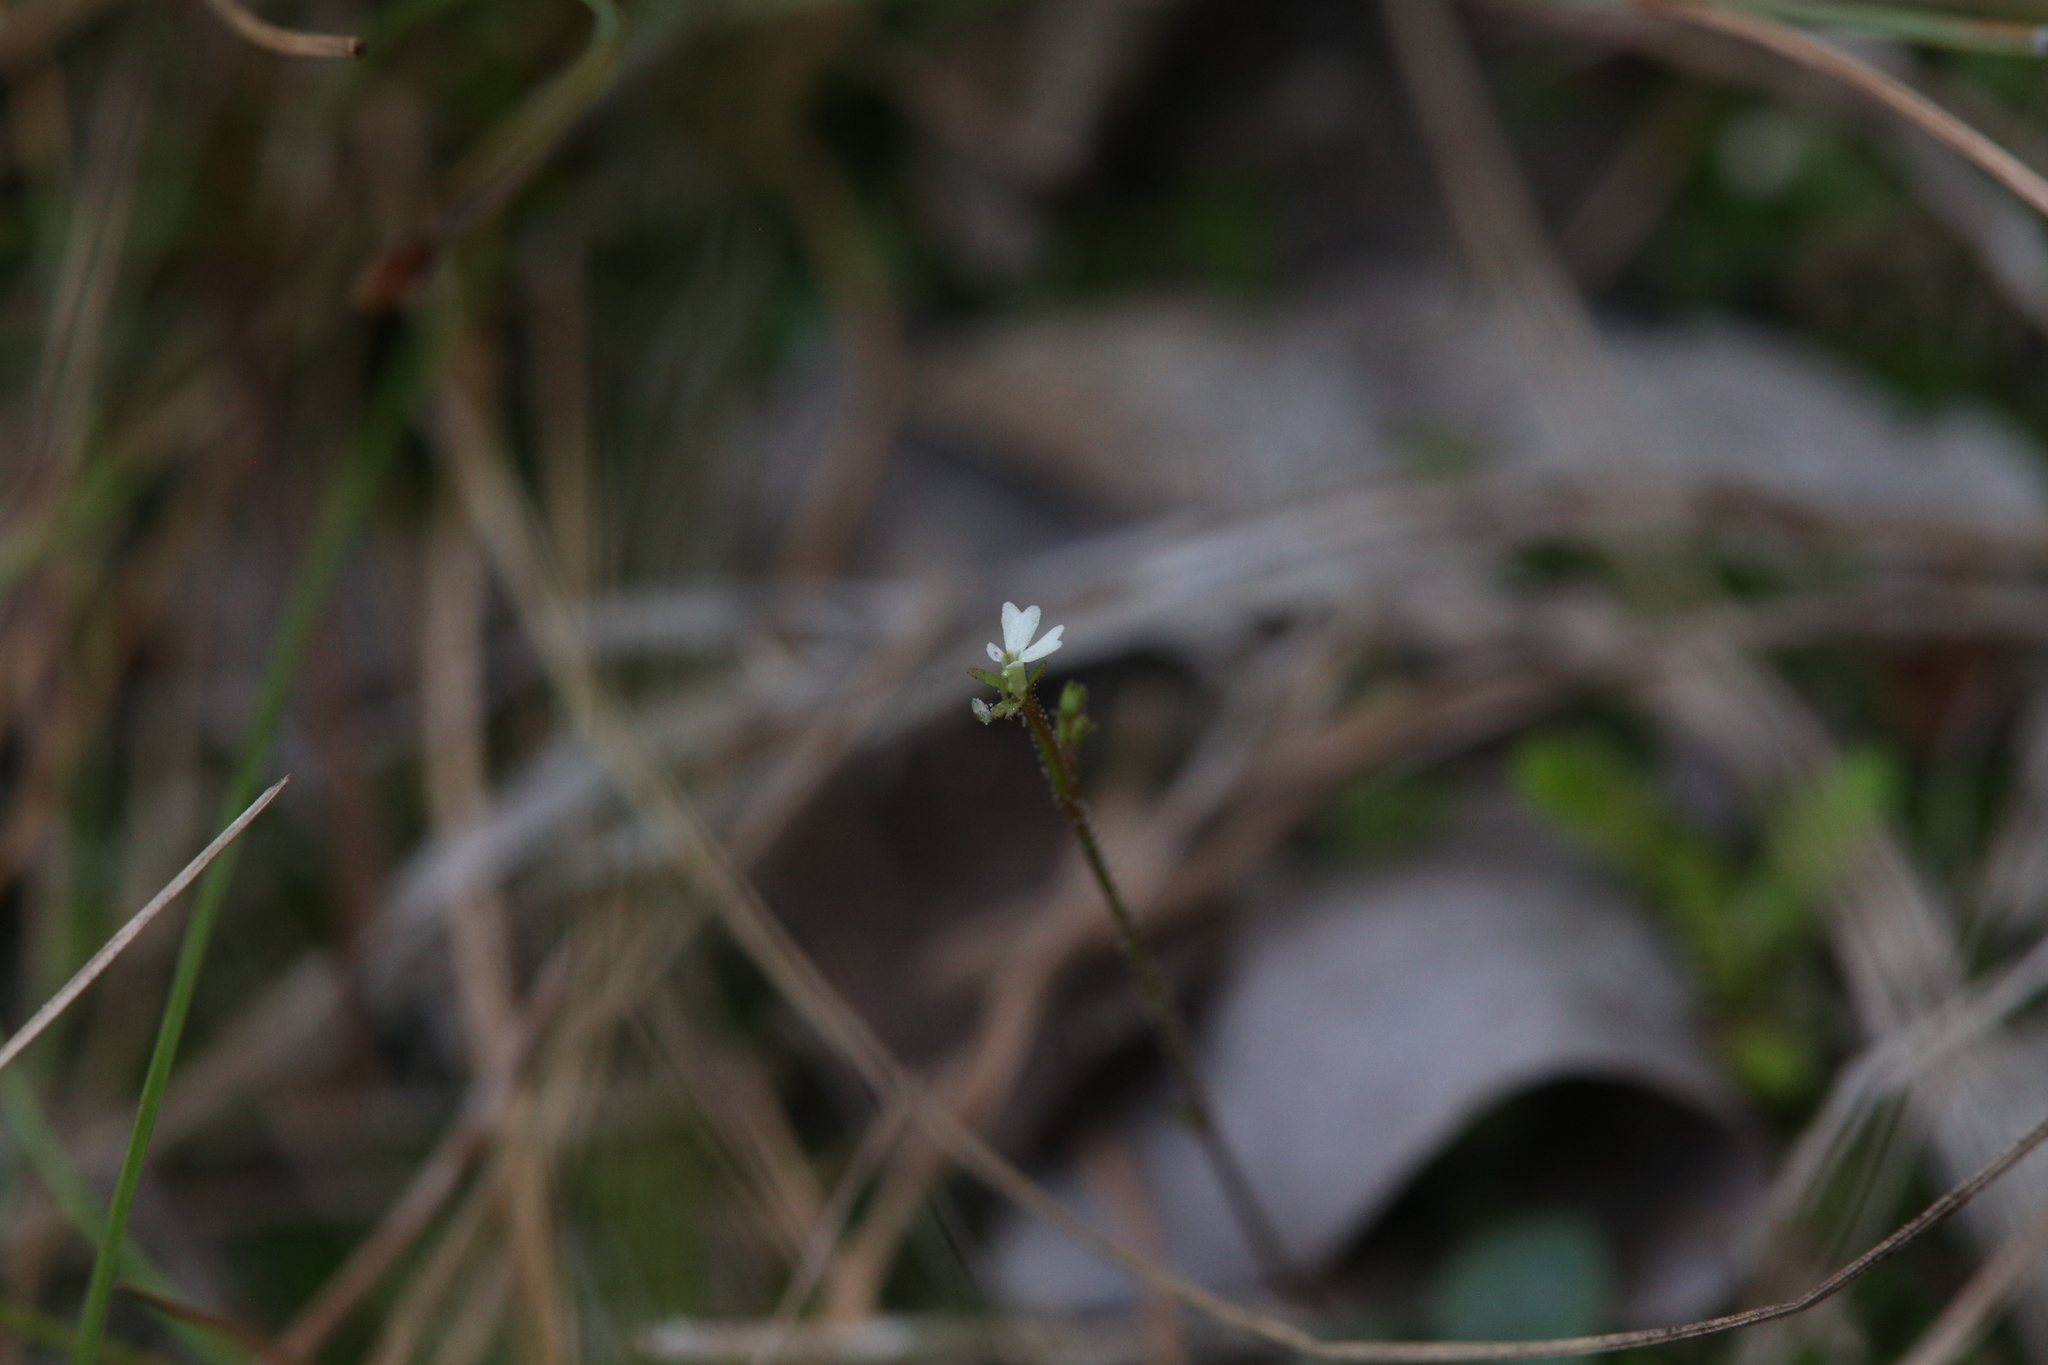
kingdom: Plantae
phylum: Tracheophyta
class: Magnoliopsida
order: Asterales
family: Stylidiaceae
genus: Stylidium
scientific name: Stylidium tenerum
